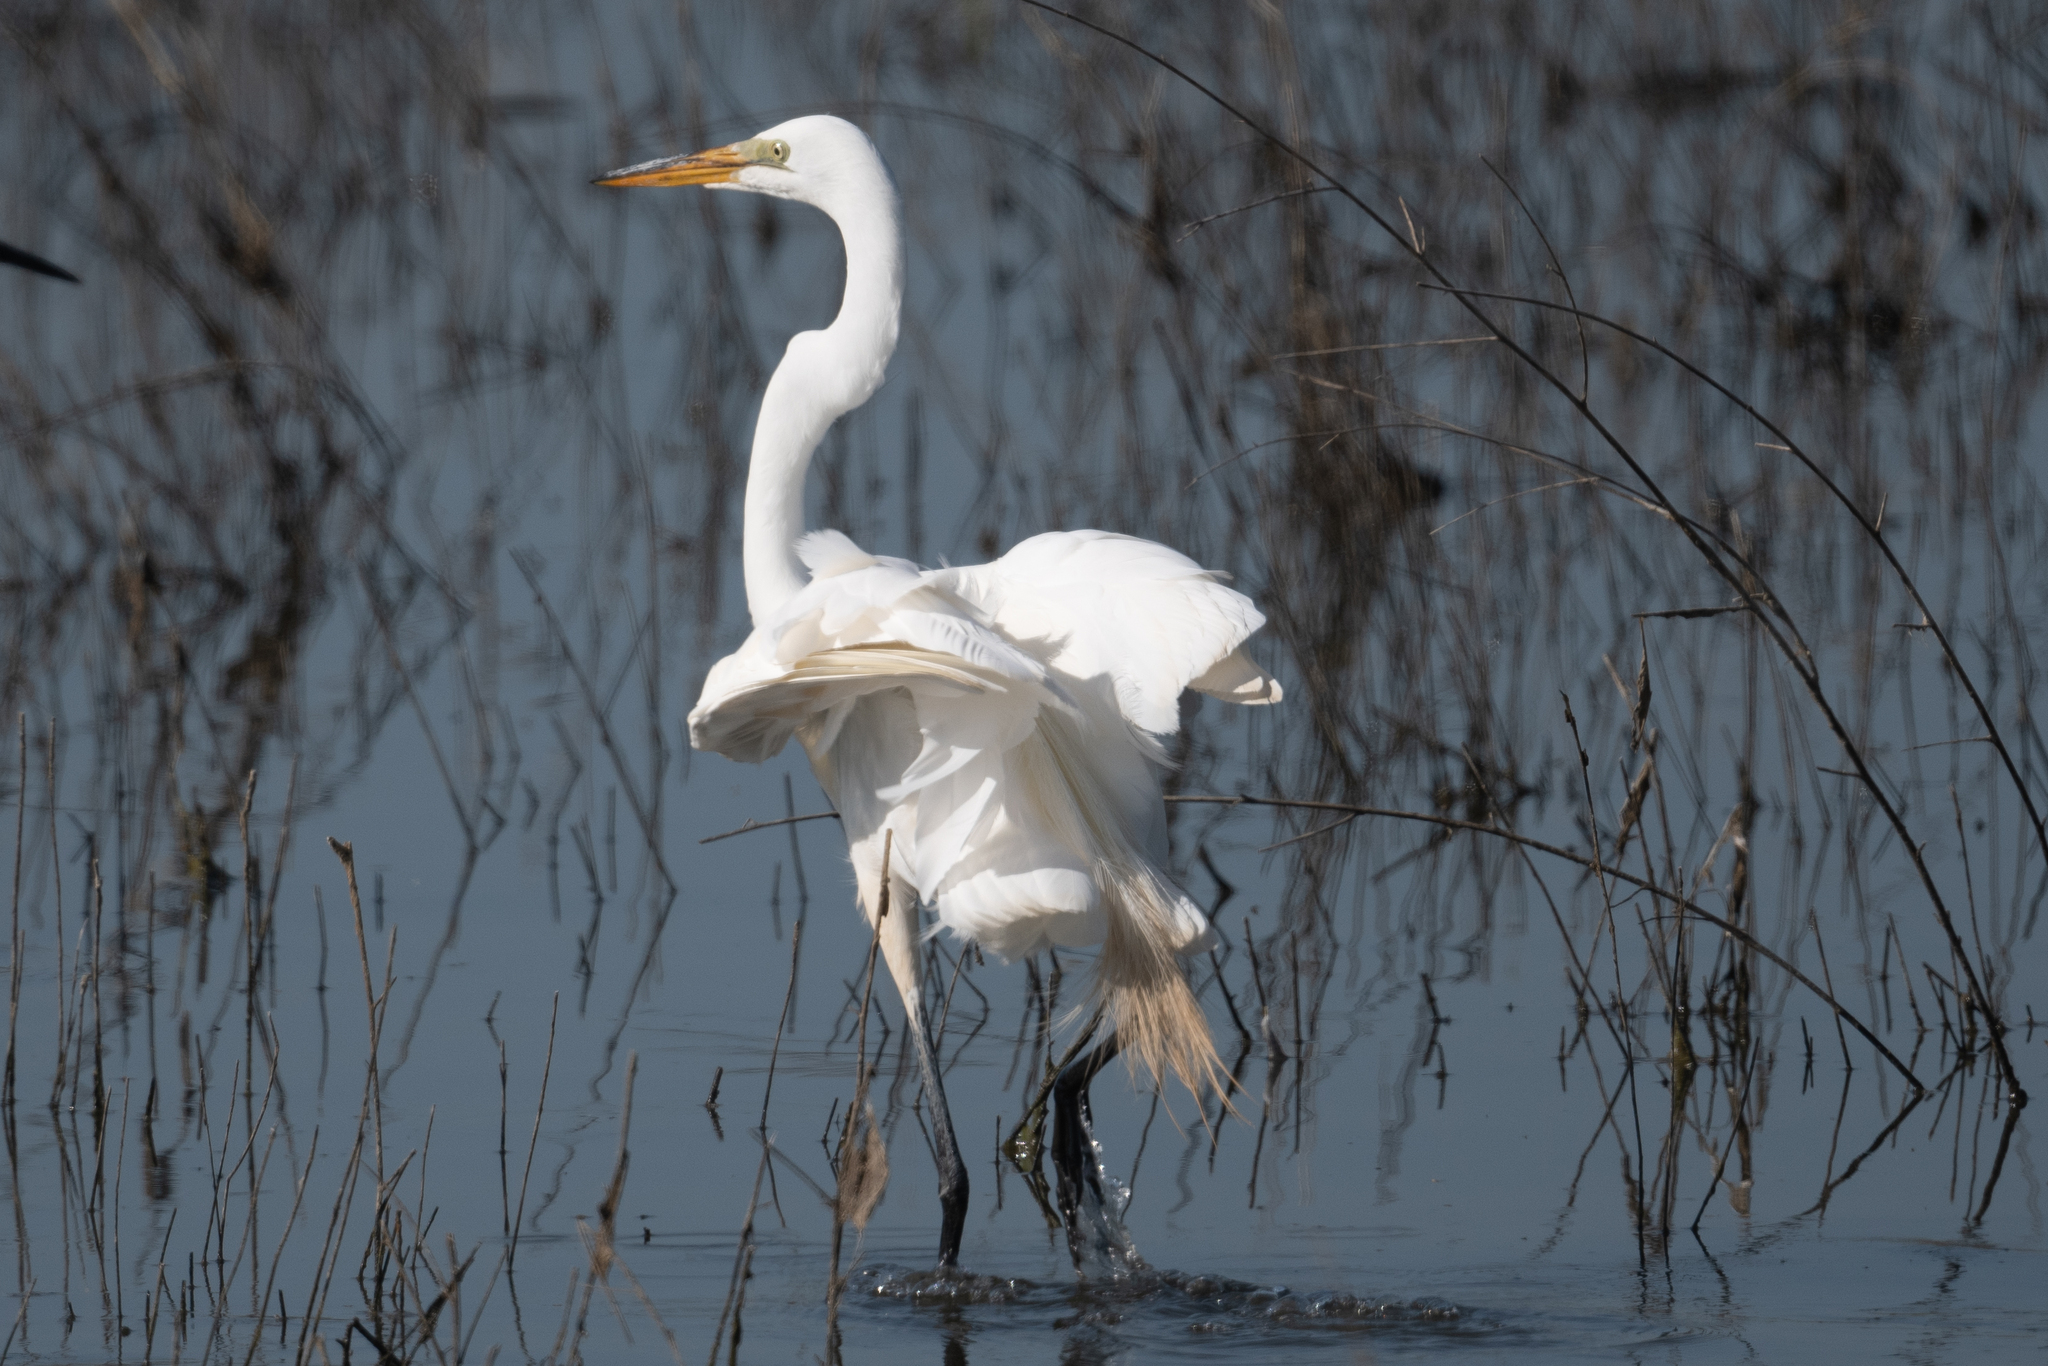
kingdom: Animalia
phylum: Chordata
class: Aves
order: Pelecaniformes
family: Ardeidae
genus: Ardea
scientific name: Ardea alba
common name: Great egret
